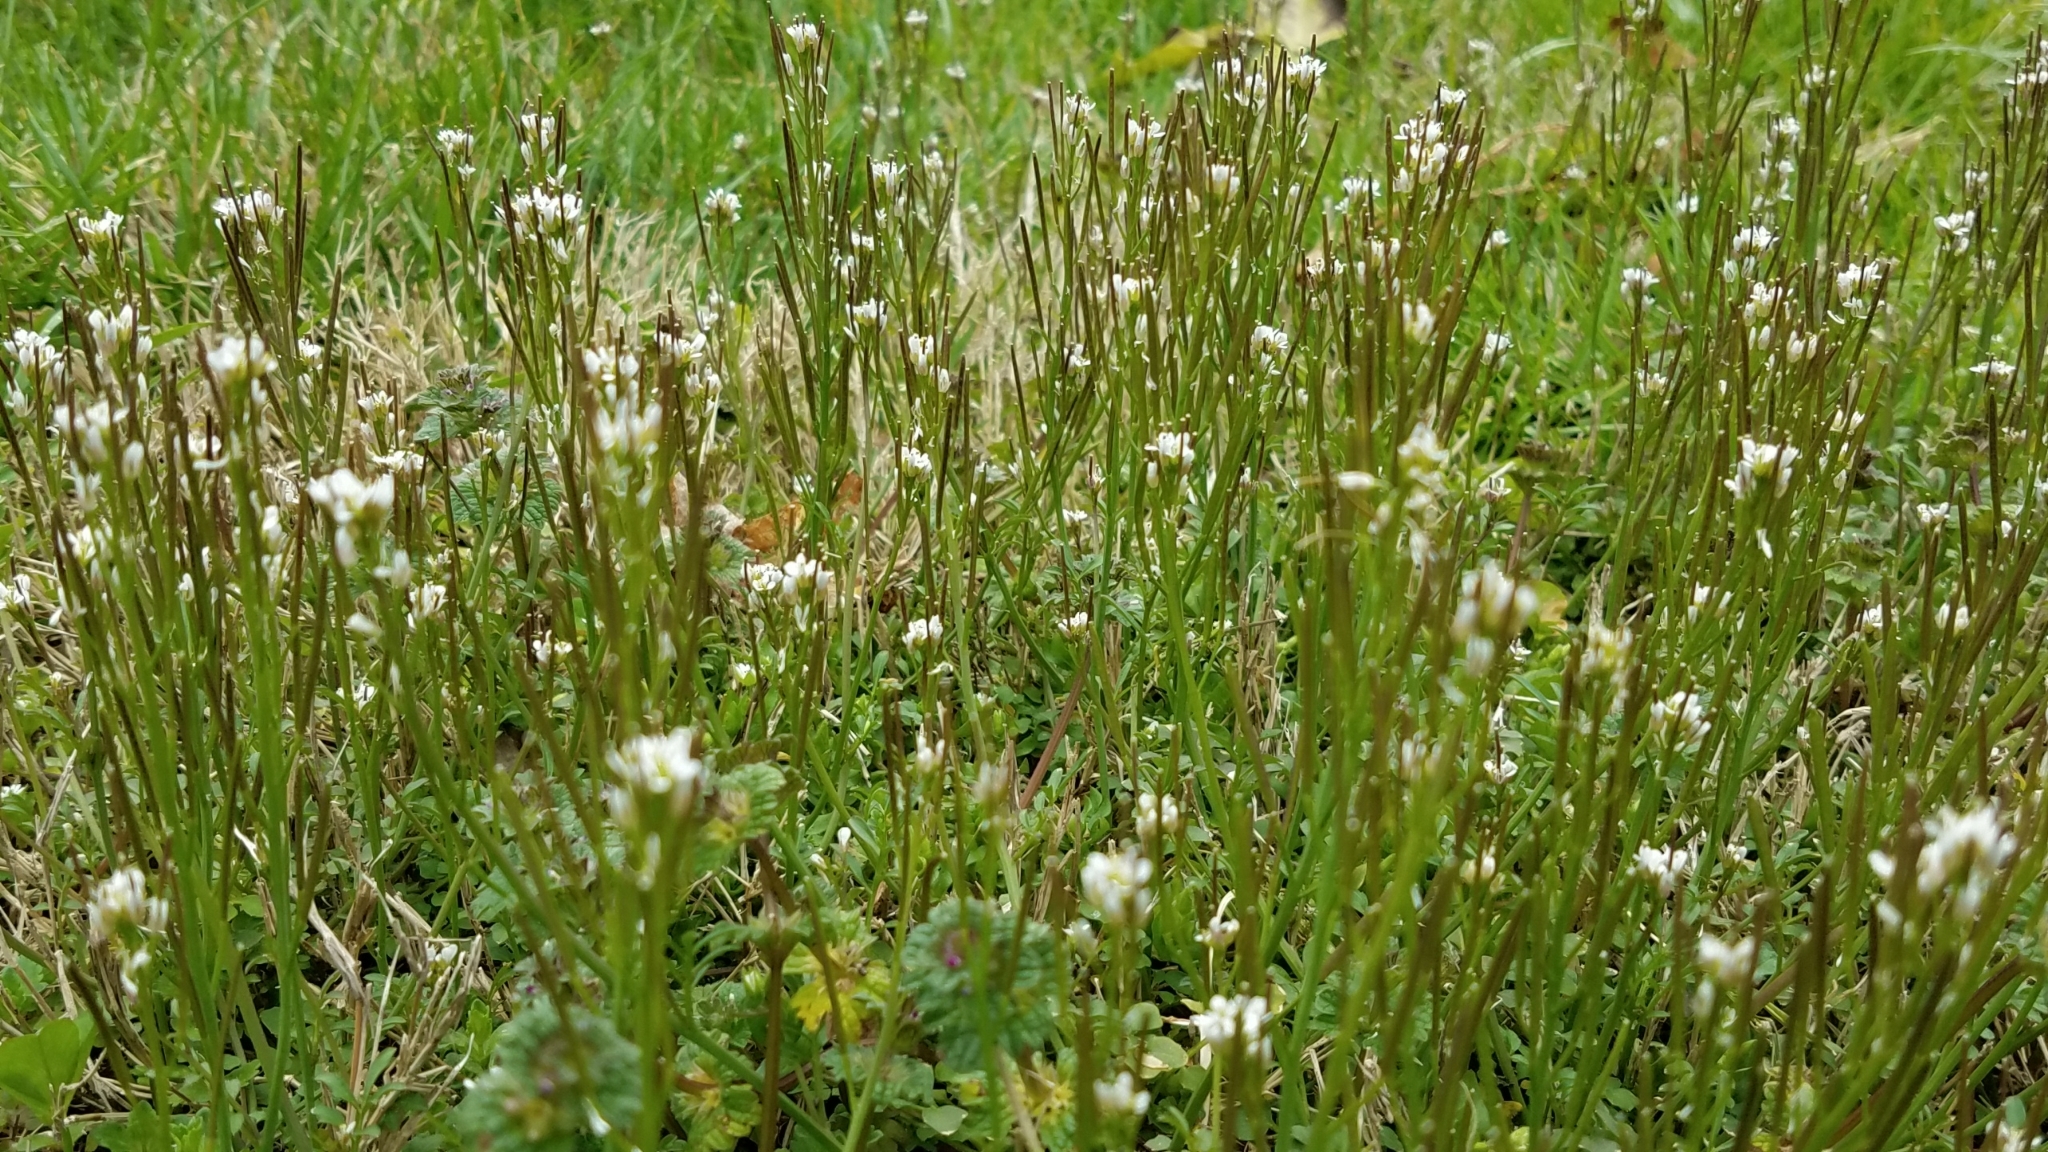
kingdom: Plantae
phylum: Tracheophyta
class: Magnoliopsida
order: Brassicales
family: Brassicaceae
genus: Cardamine
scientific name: Cardamine hirsuta
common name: Hairy bittercress
